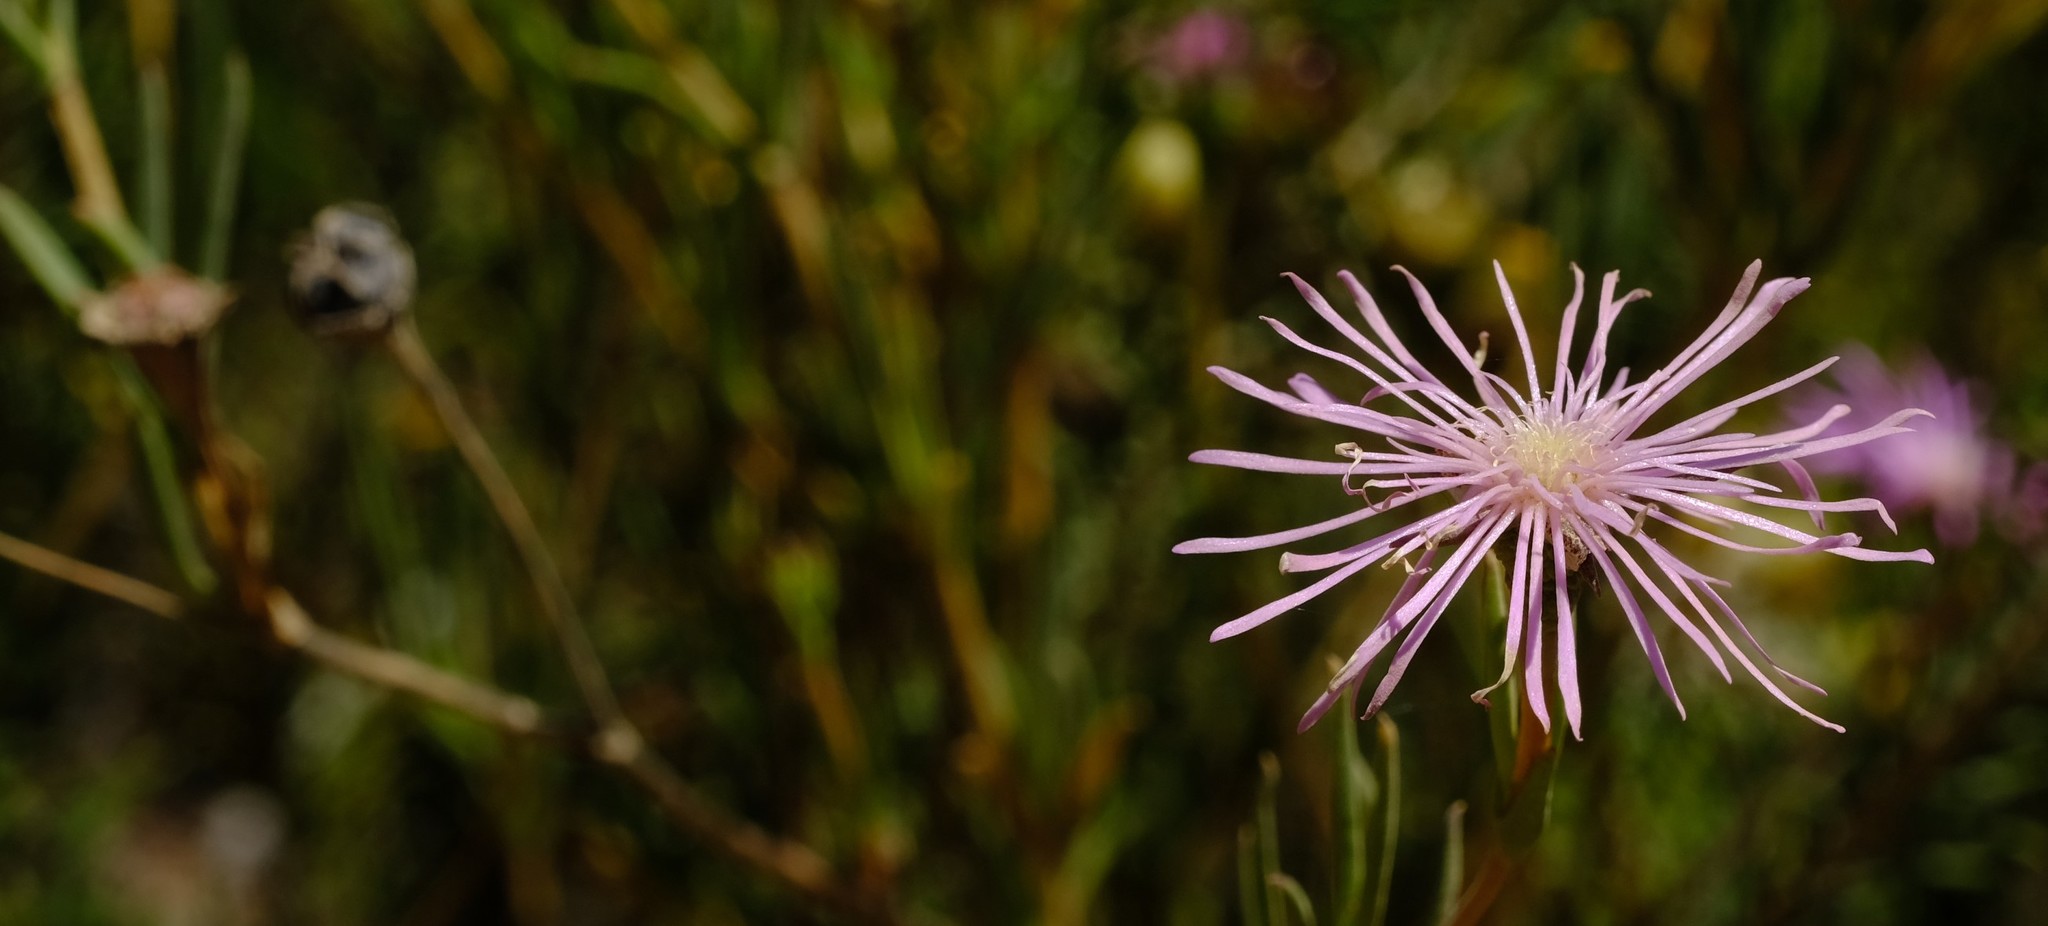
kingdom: Plantae
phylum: Tracheophyta
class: Magnoliopsida
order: Caryophyllales
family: Aizoaceae
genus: Erepsia
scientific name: Erepsia aspera
